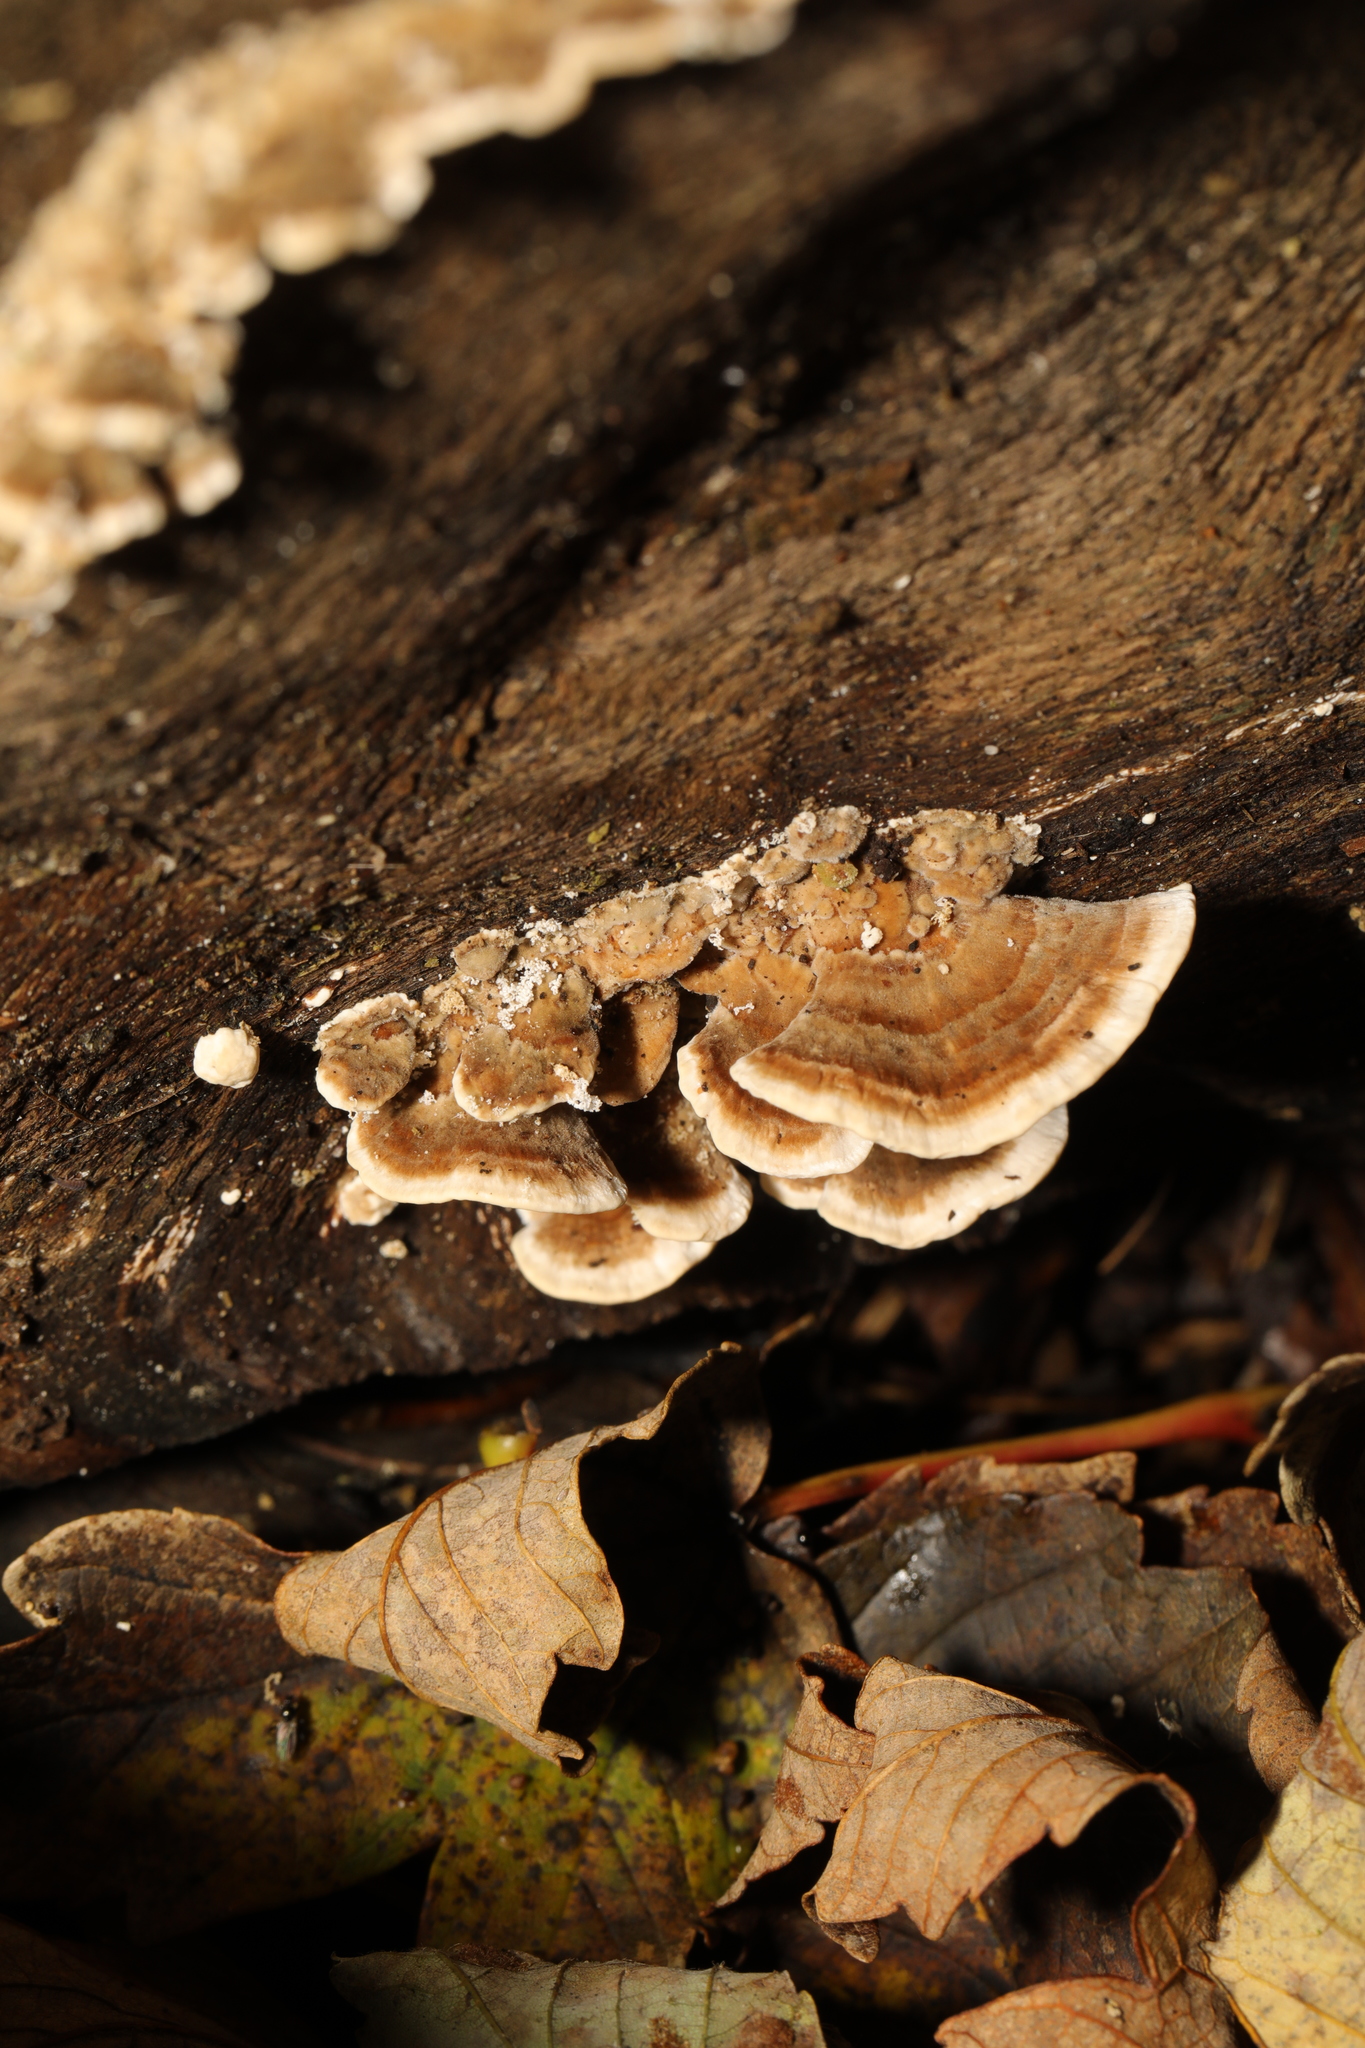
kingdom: Fungi
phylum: Basidiomycota
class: Agaricomycetes
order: Polyporales
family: Polyporaceae
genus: Trametes
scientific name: Trametes versicolor
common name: Turkeytail
